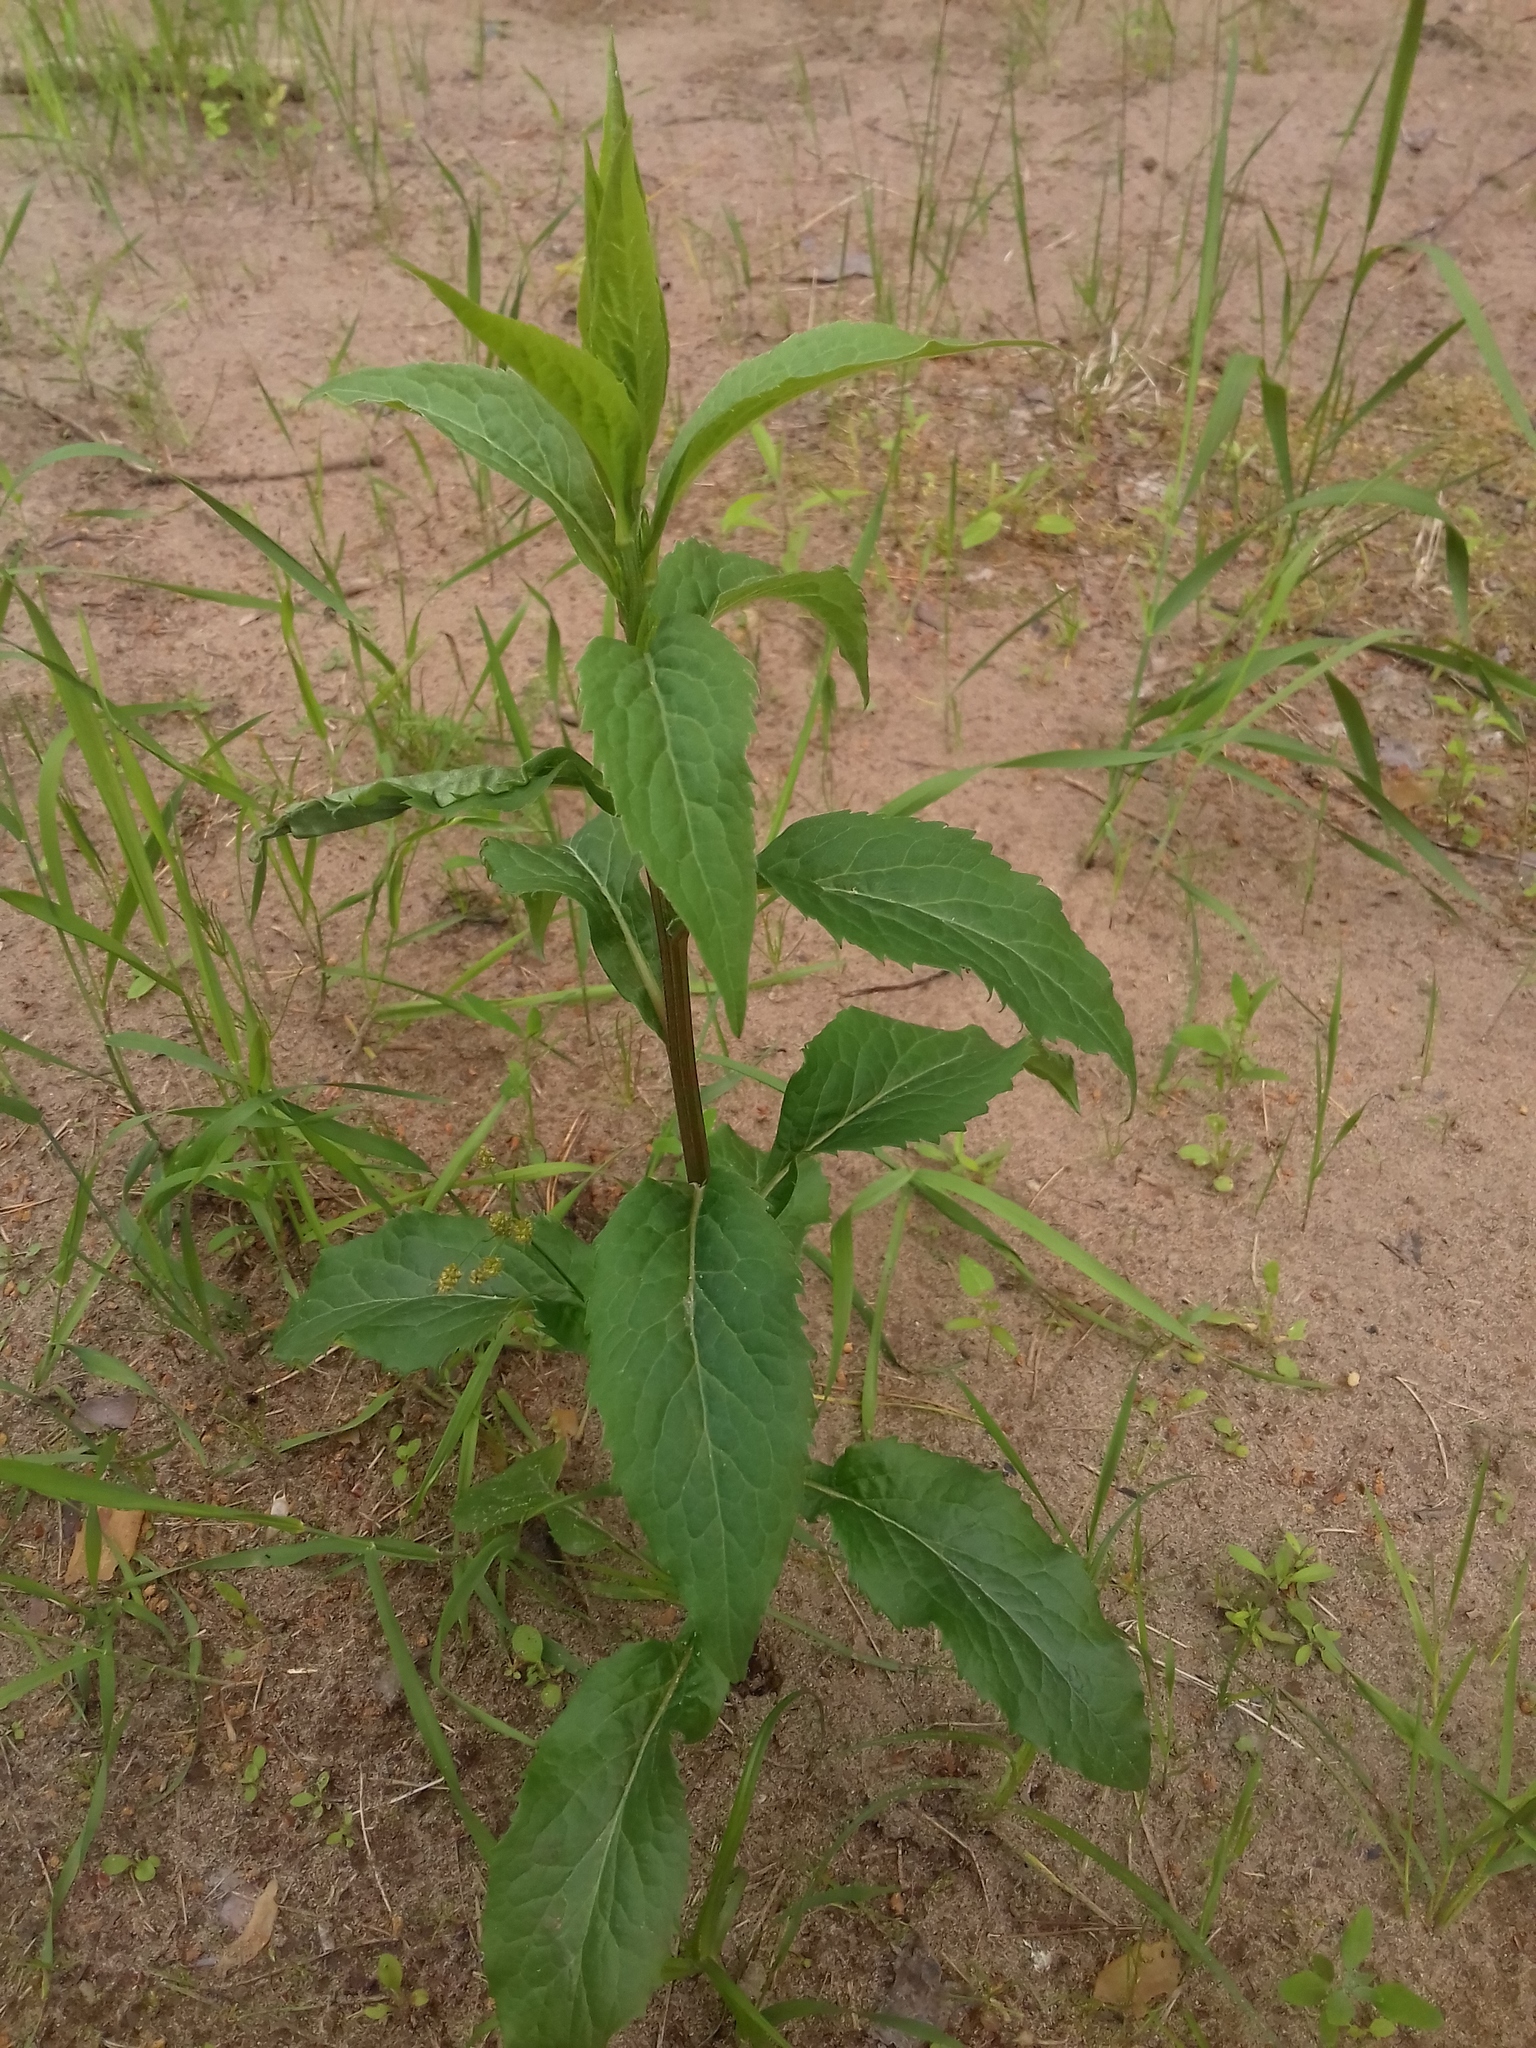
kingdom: Plantae
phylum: Tracheophyta
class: Magnoliopsida
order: Asterales
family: Asteraceae
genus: Solidago
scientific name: Solidago virgaurea
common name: Goldenrod
